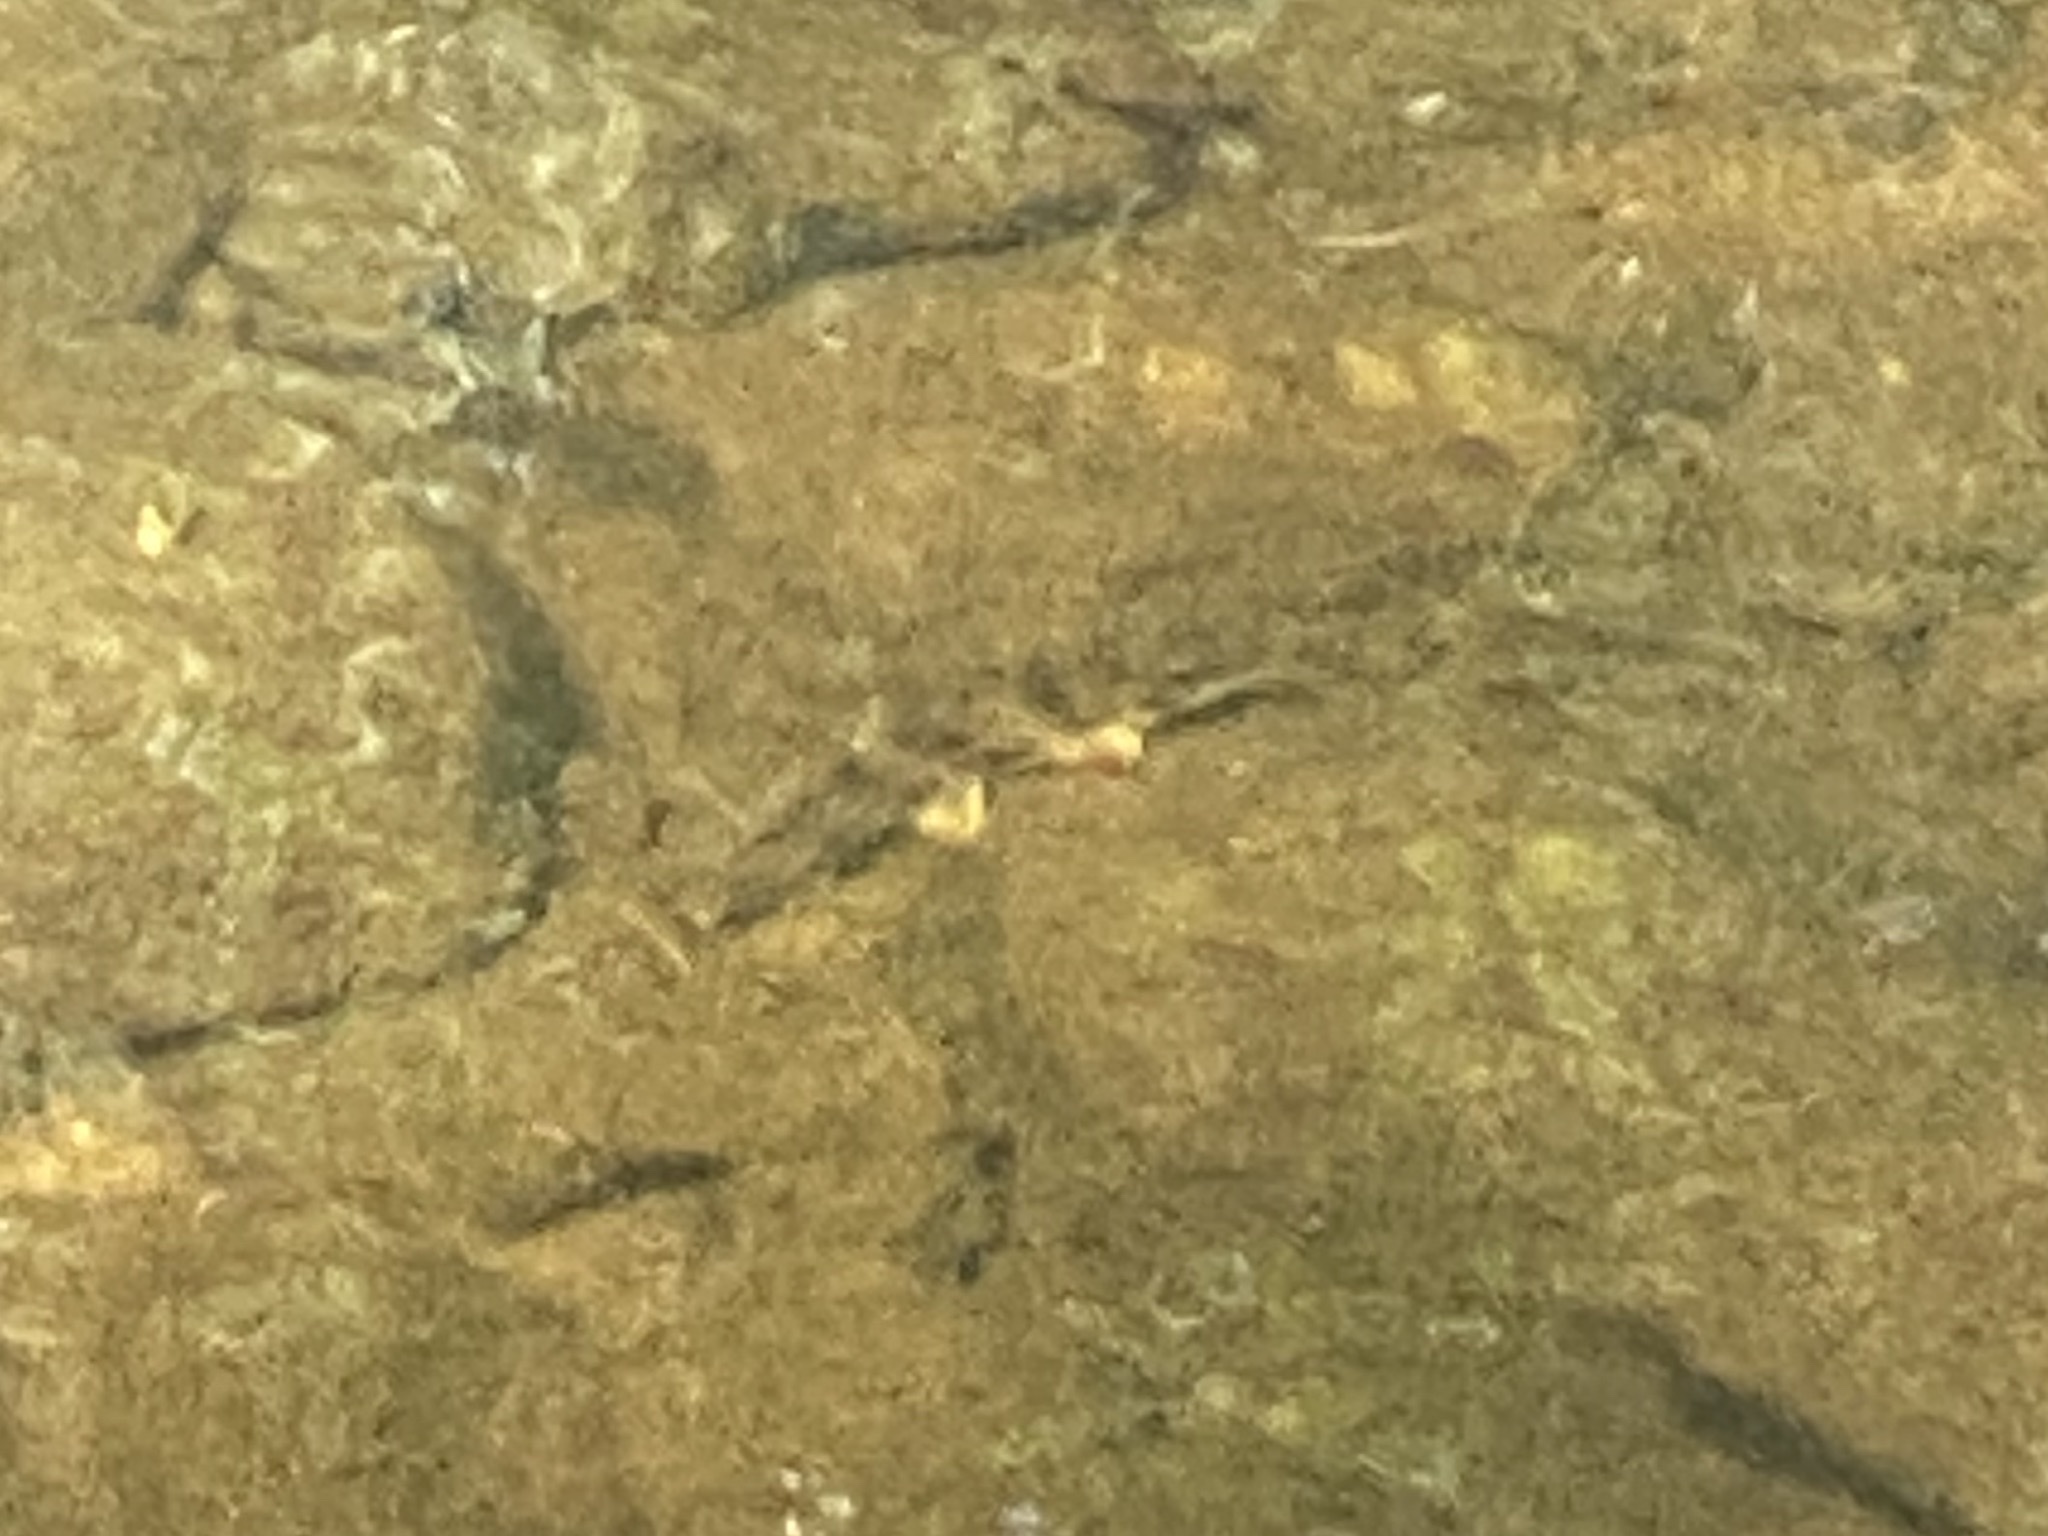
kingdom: Animalia
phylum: Chordata
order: Cypriniformes
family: Catostomidae
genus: Hypentelium
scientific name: Hypentelium nigricans
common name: Northern hog sucker
